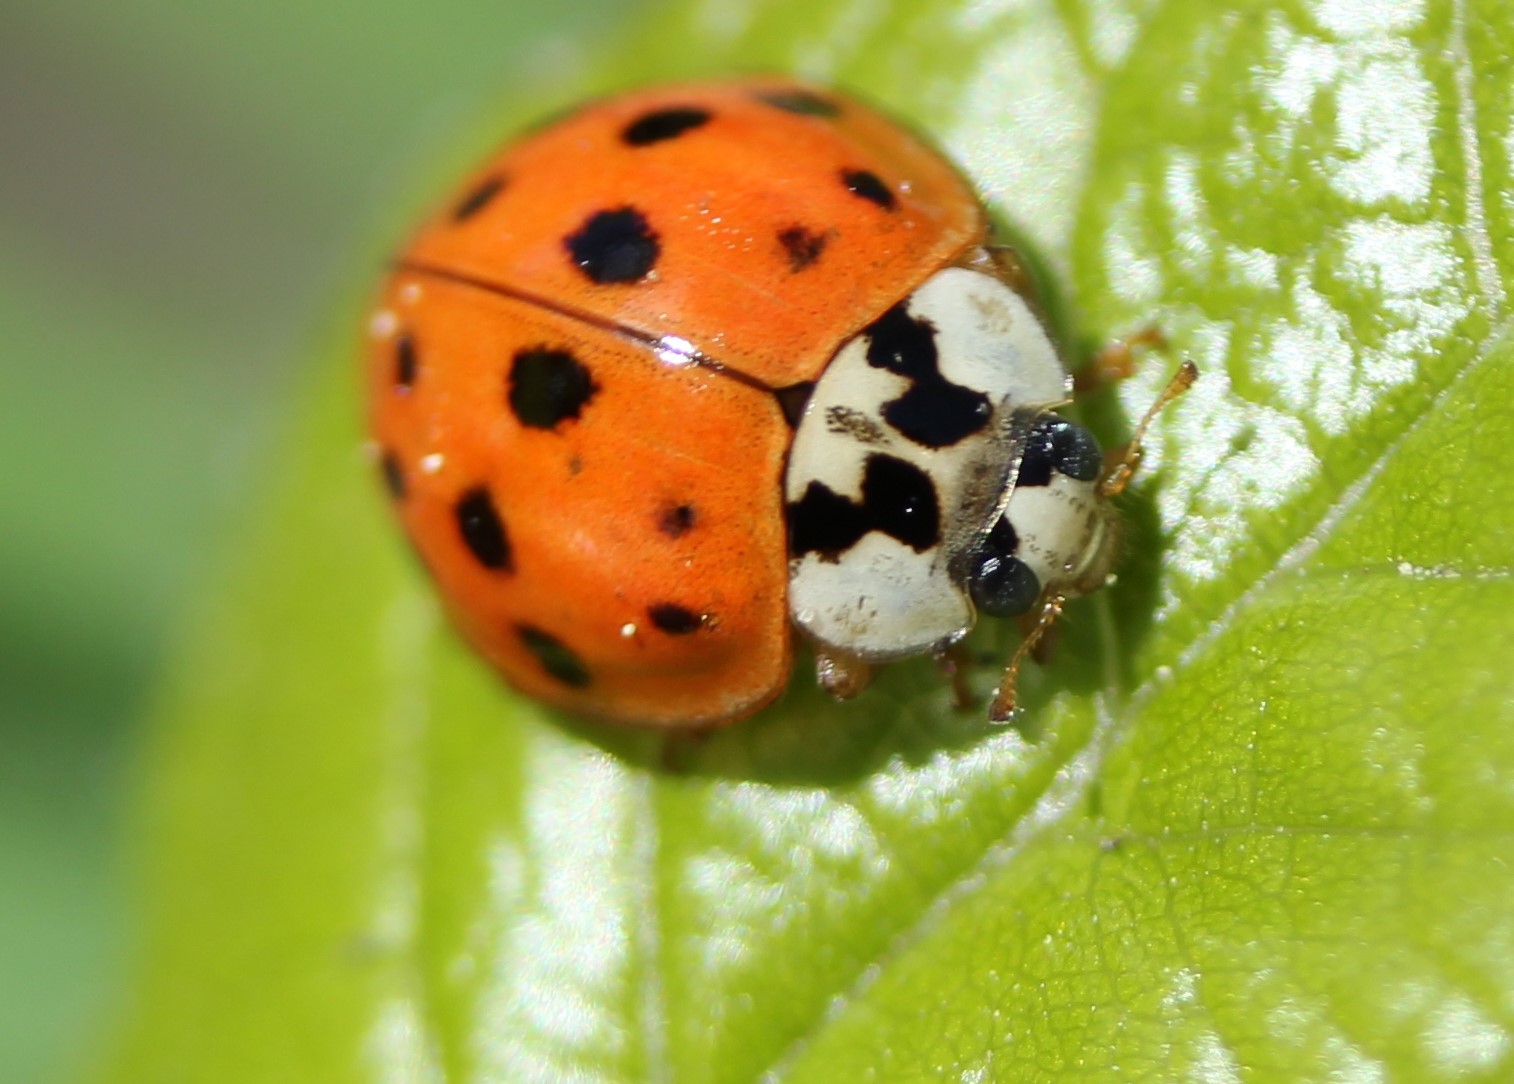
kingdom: Animalia
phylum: Arthropoda
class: Insecta
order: Coleoptera
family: Coccinellidae
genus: Harmonia
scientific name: Harmonia axyridis
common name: Harlequin ladybird
